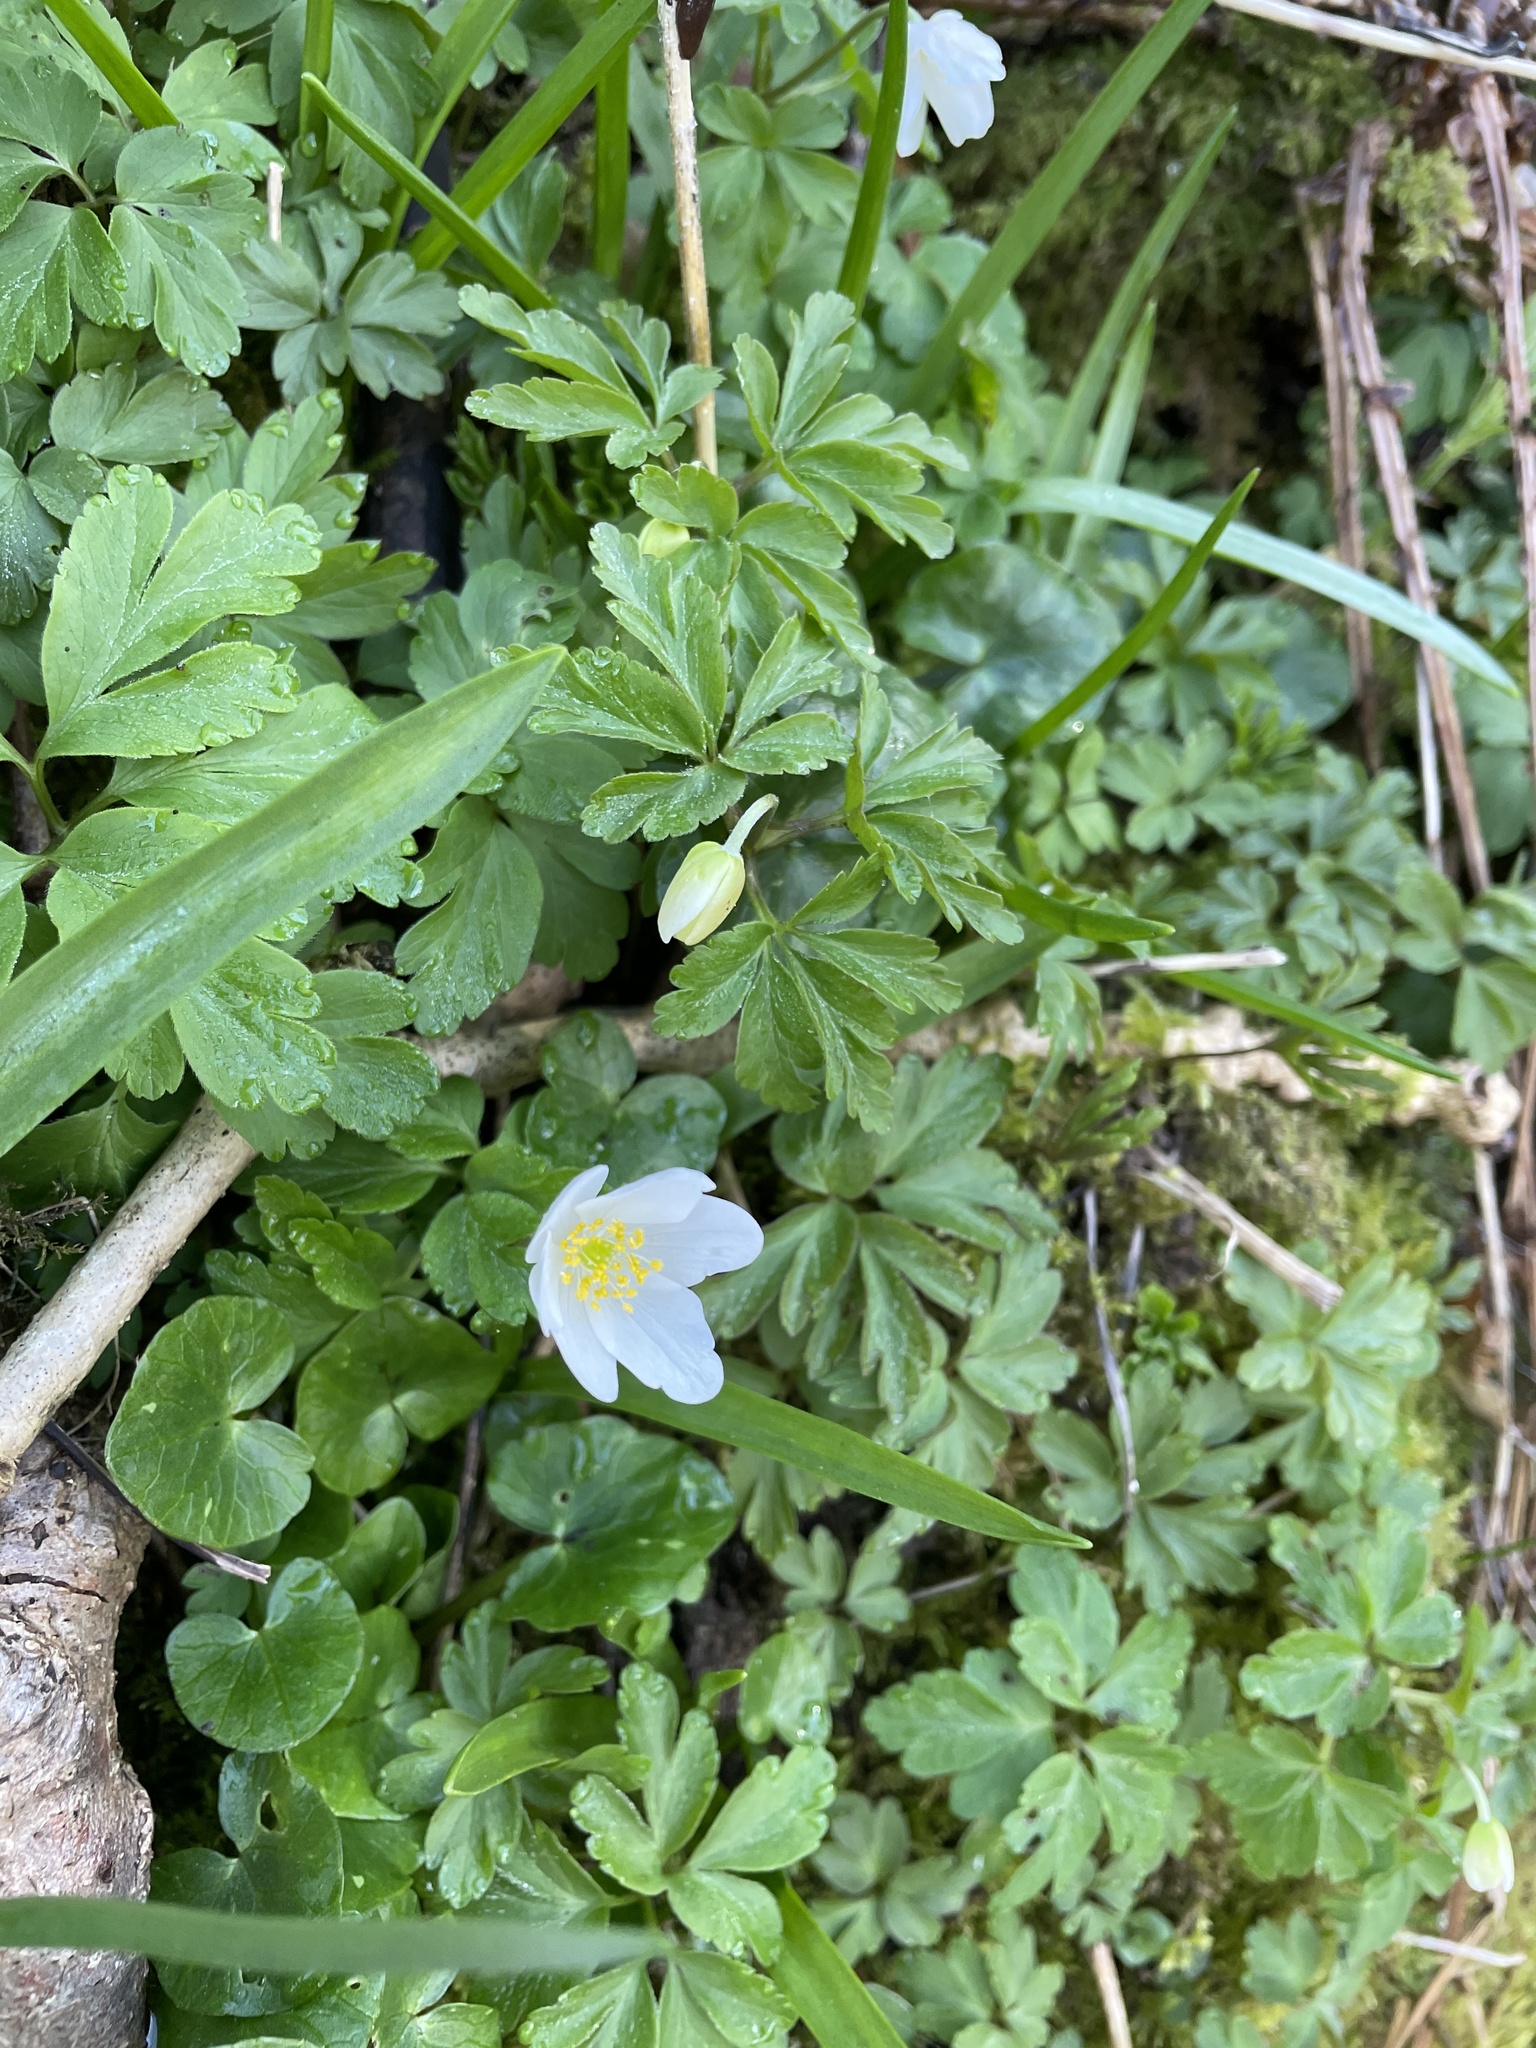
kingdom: Plantae
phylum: Tracheophyta
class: Magnoliopsida
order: Ranunculales
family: Ranunculaceae
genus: Anemone
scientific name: Anemone nemorosa
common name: Wood anemone
